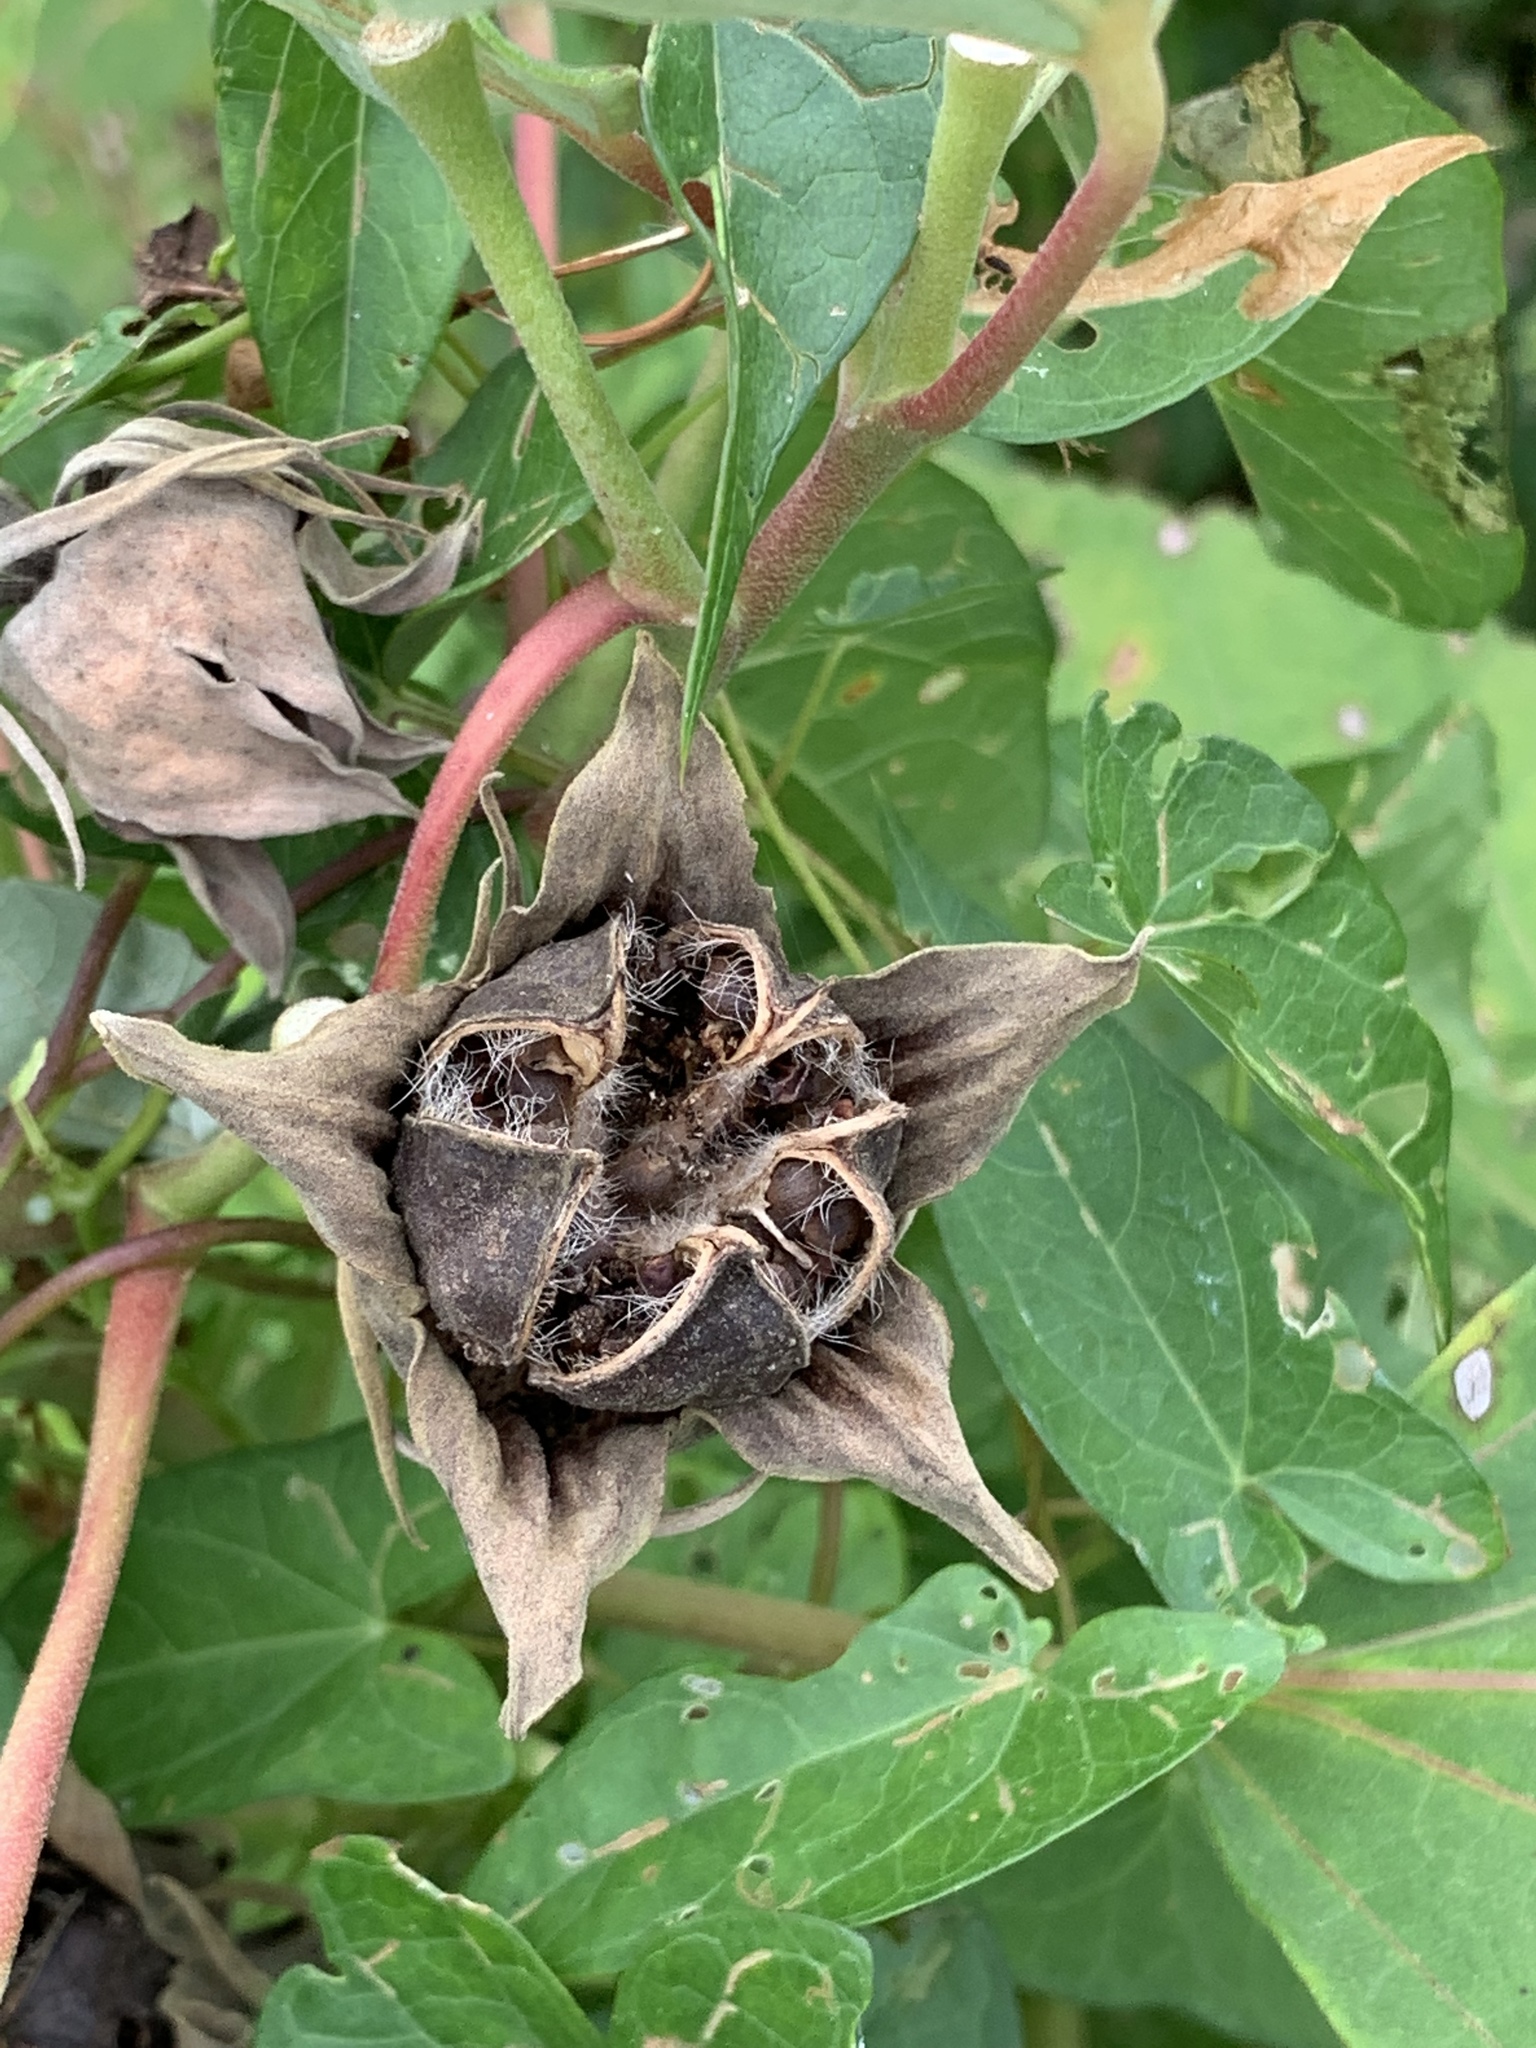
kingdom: Plantae
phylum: Tracheophyta
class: Magnoliopsida
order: Malvales
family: Malvaceae
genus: Hibiscus
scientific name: Hibiscus moscheutos
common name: Common rose-mallow
